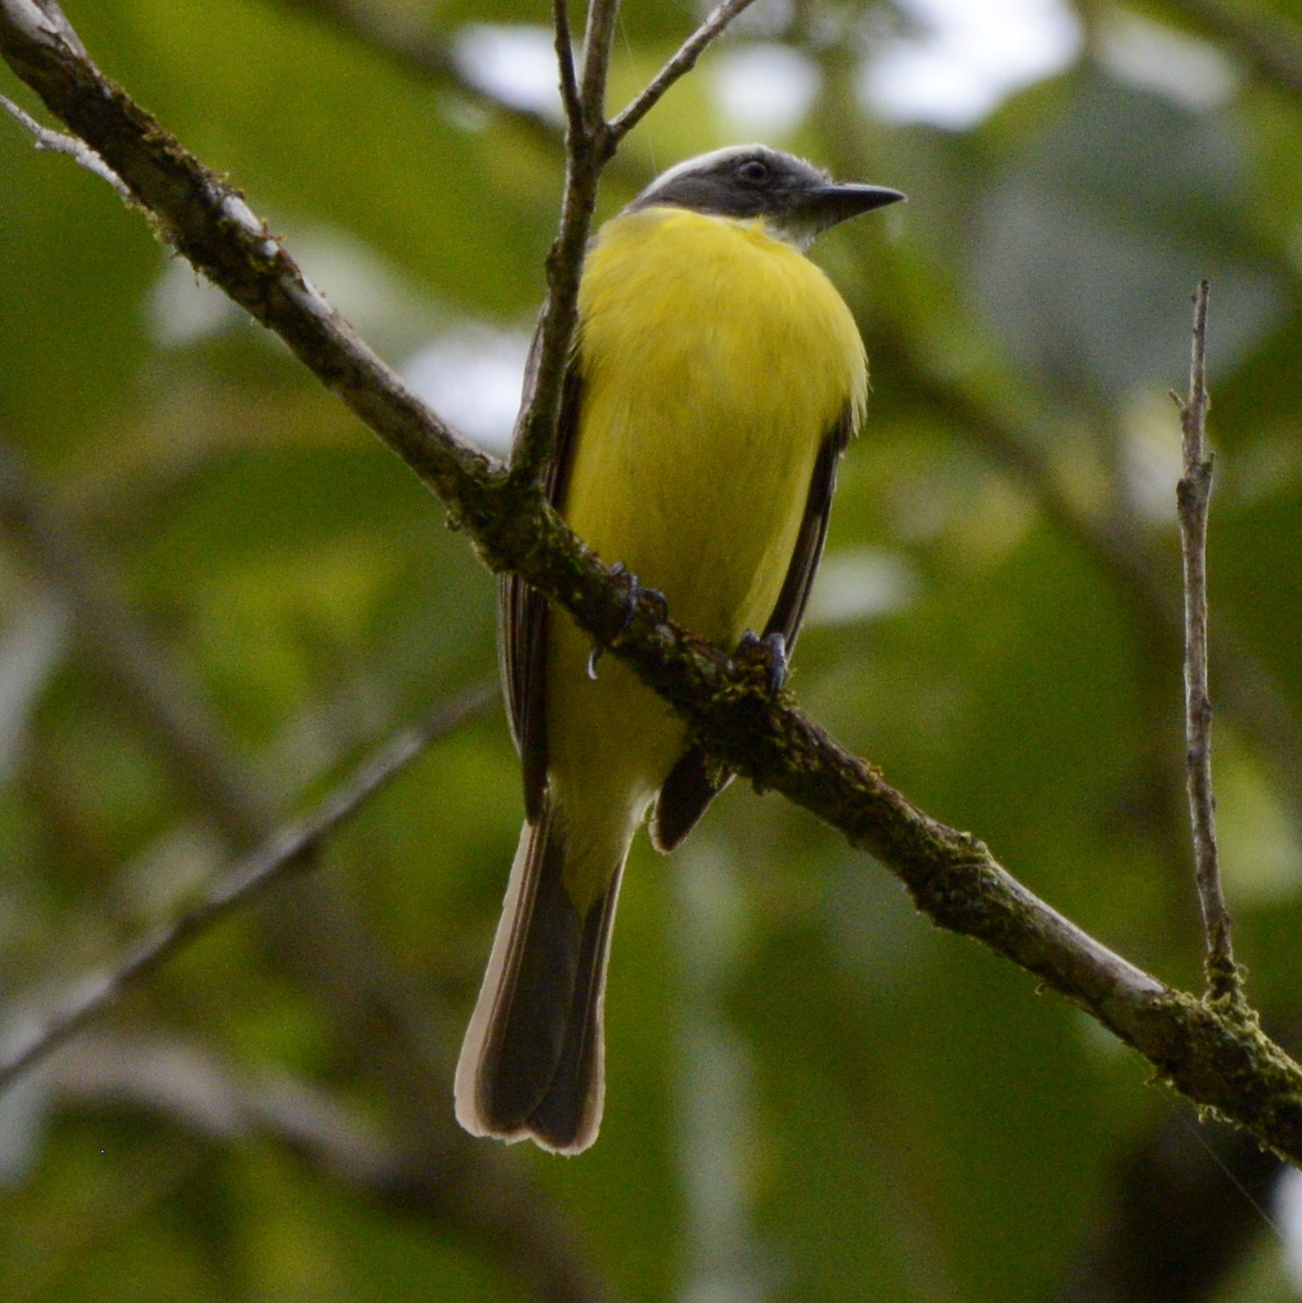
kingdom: Animalia
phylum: Chordata
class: Aves
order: Passeriformes
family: Tyrannidae
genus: Myiozetetes
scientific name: Myiozetetes similis
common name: Social flycatcher
